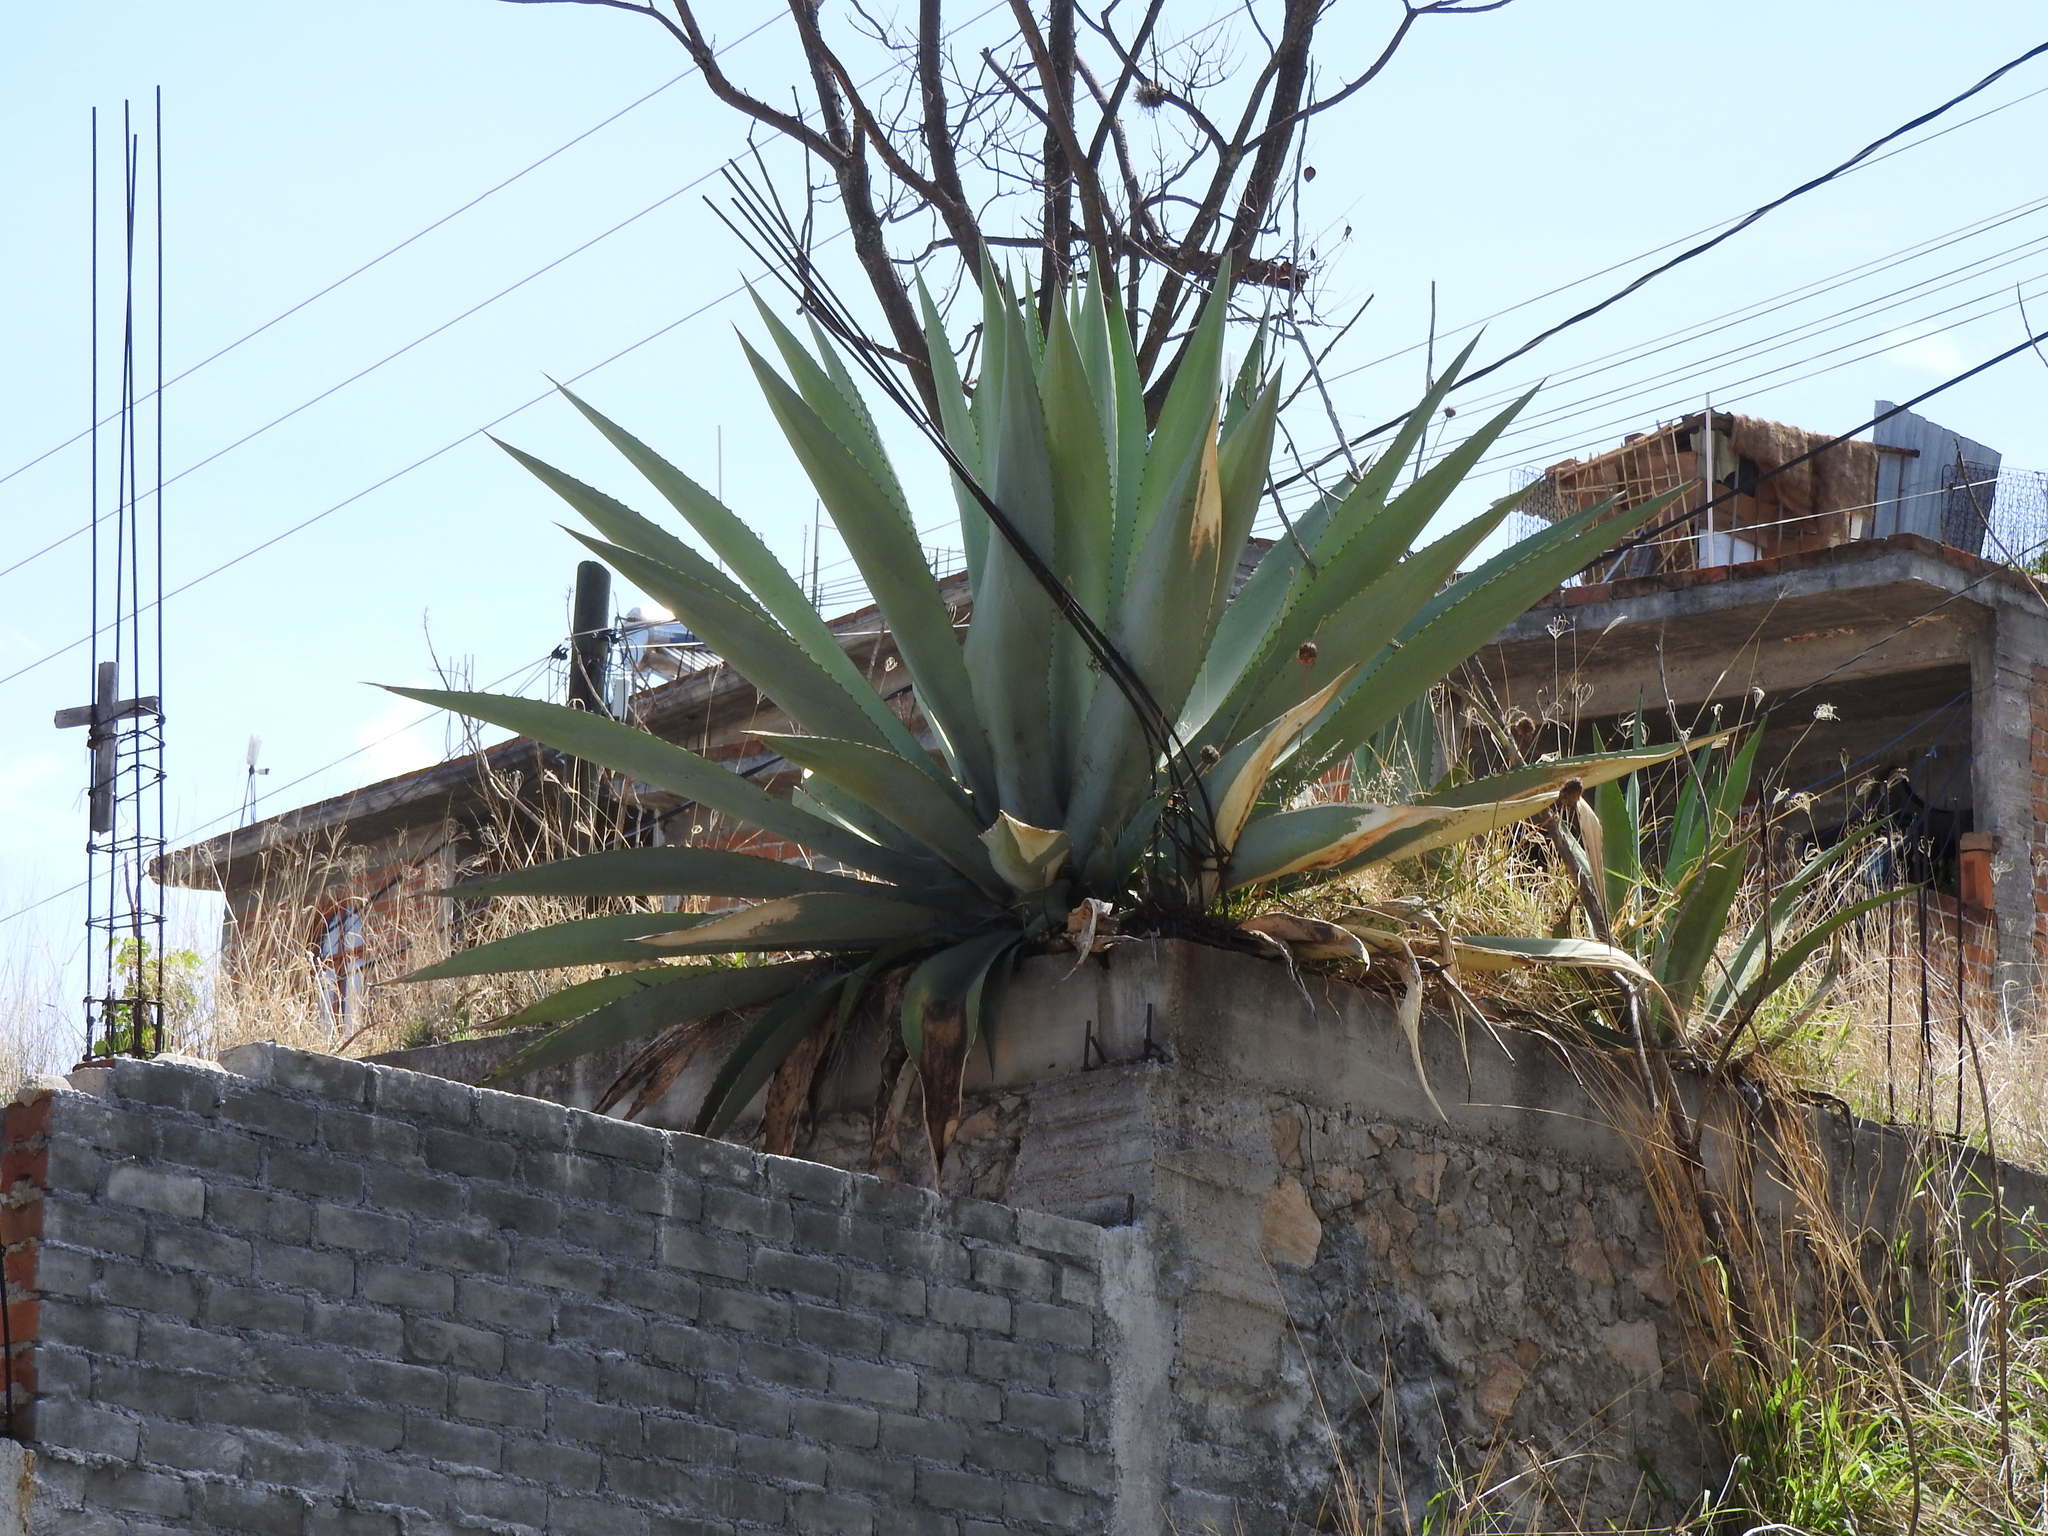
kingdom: Plantae
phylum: Tracheophyta
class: Liliopsida
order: Asparagales
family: Asparagaceae
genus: Agave
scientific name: Agave salmiana
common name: Pulque agave
